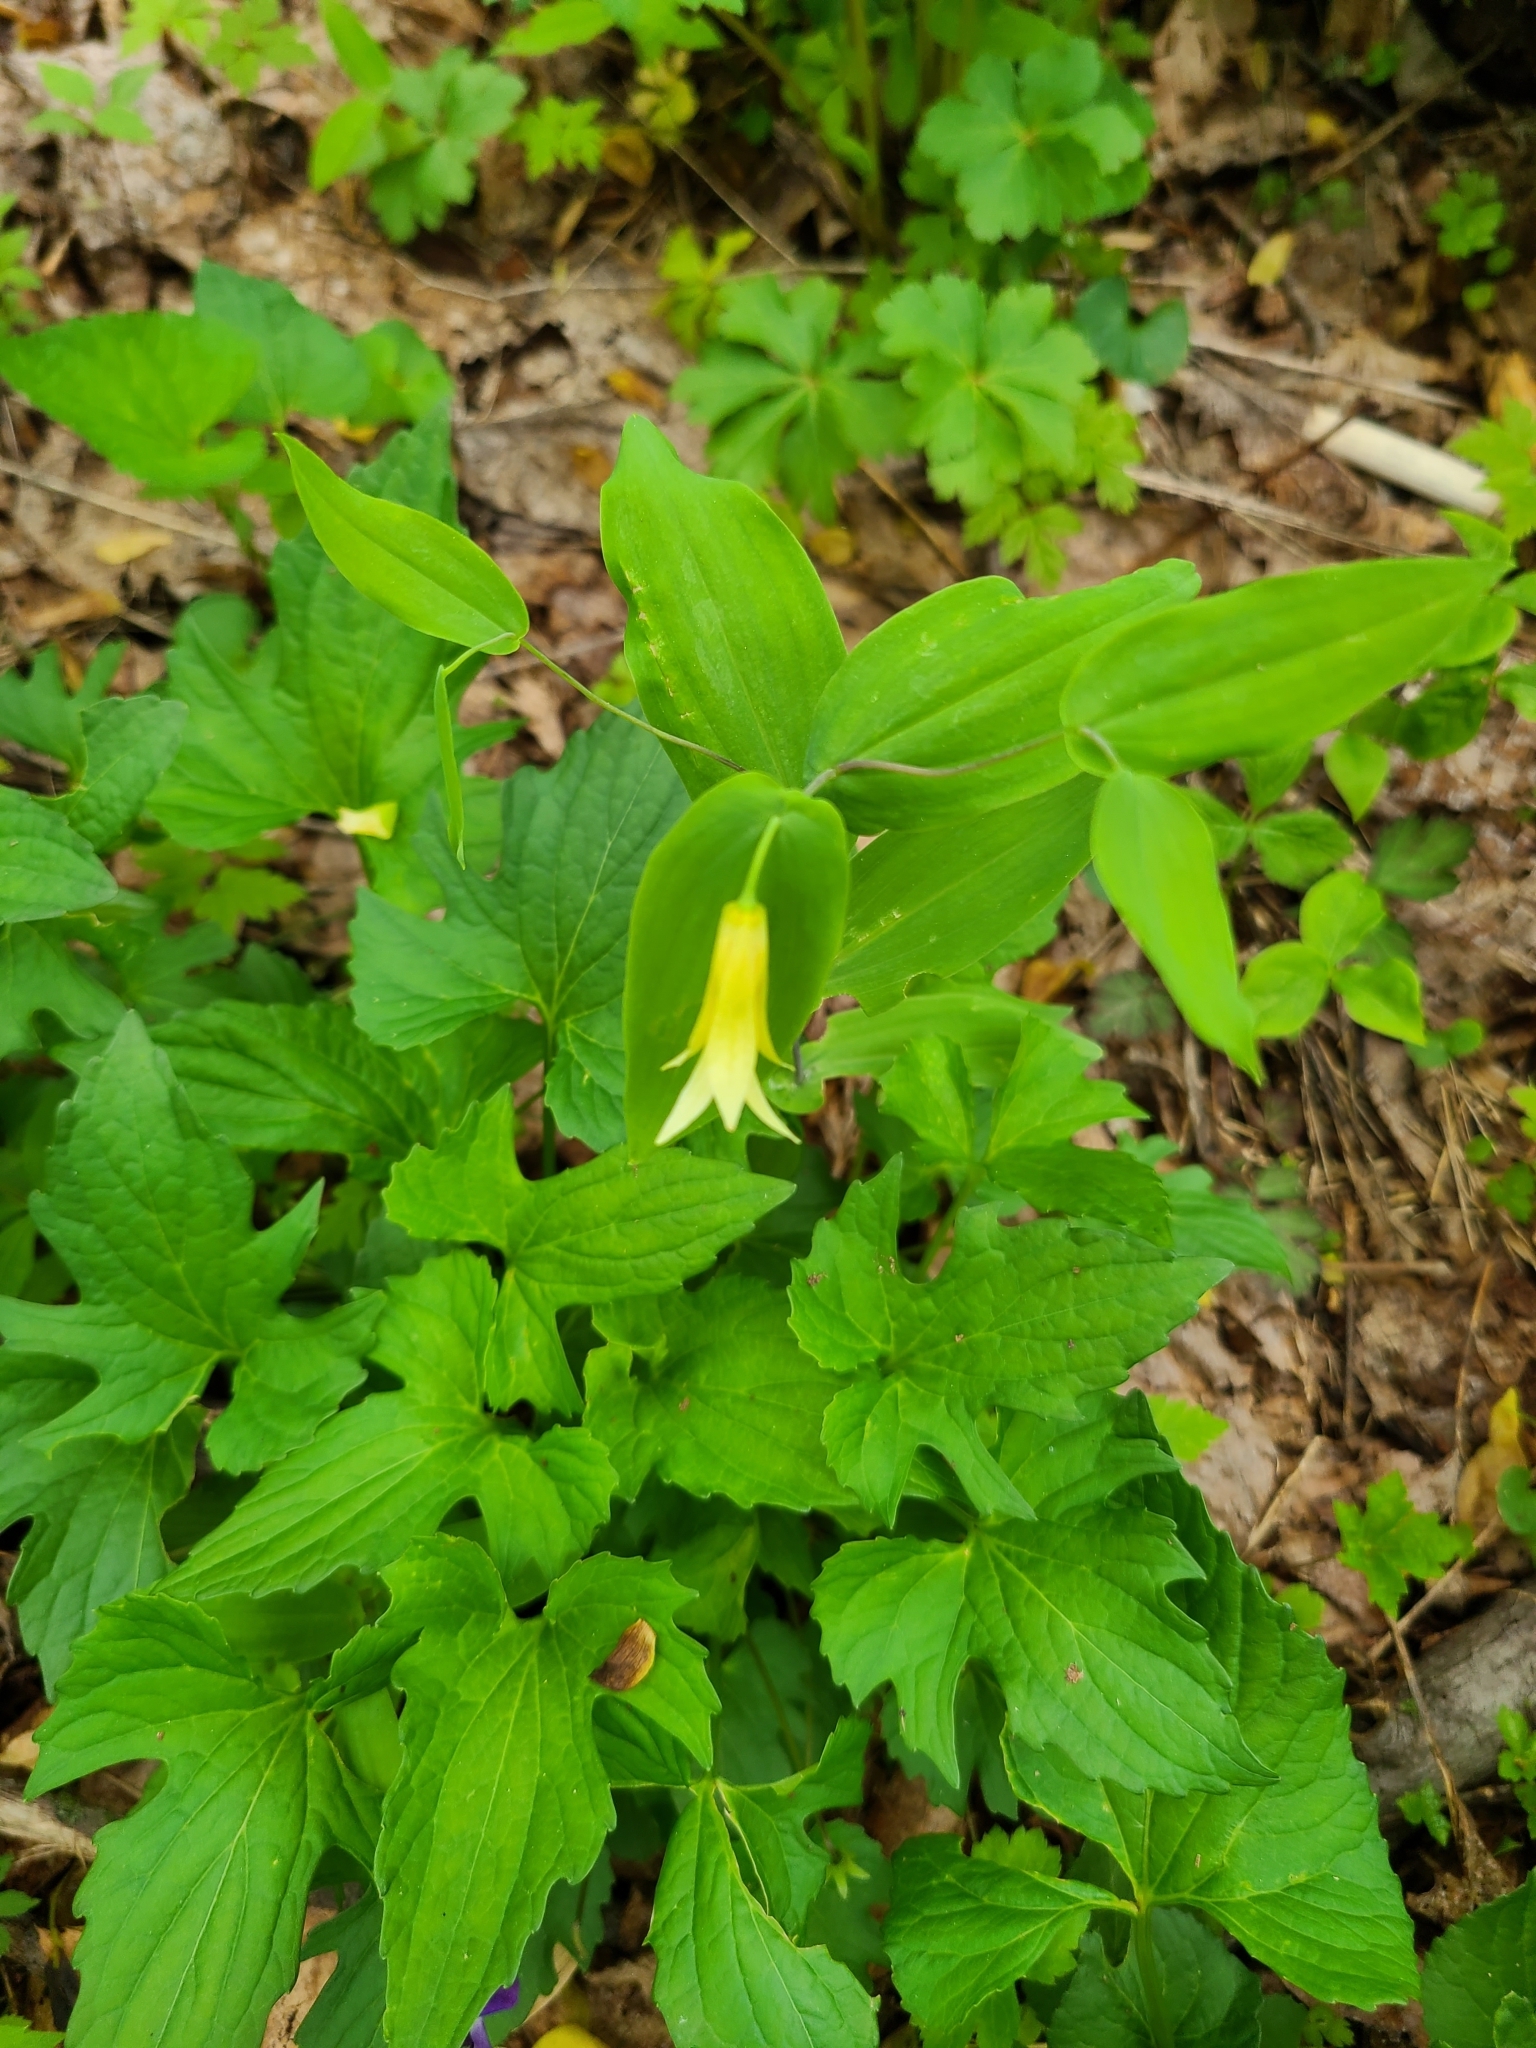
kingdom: Plantae
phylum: Tracheophyta
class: Liliopsida
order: Liliales
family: Colchicaceae
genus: Uvularia
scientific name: Uvularia perfoliata
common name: Perfoliate bellwort
